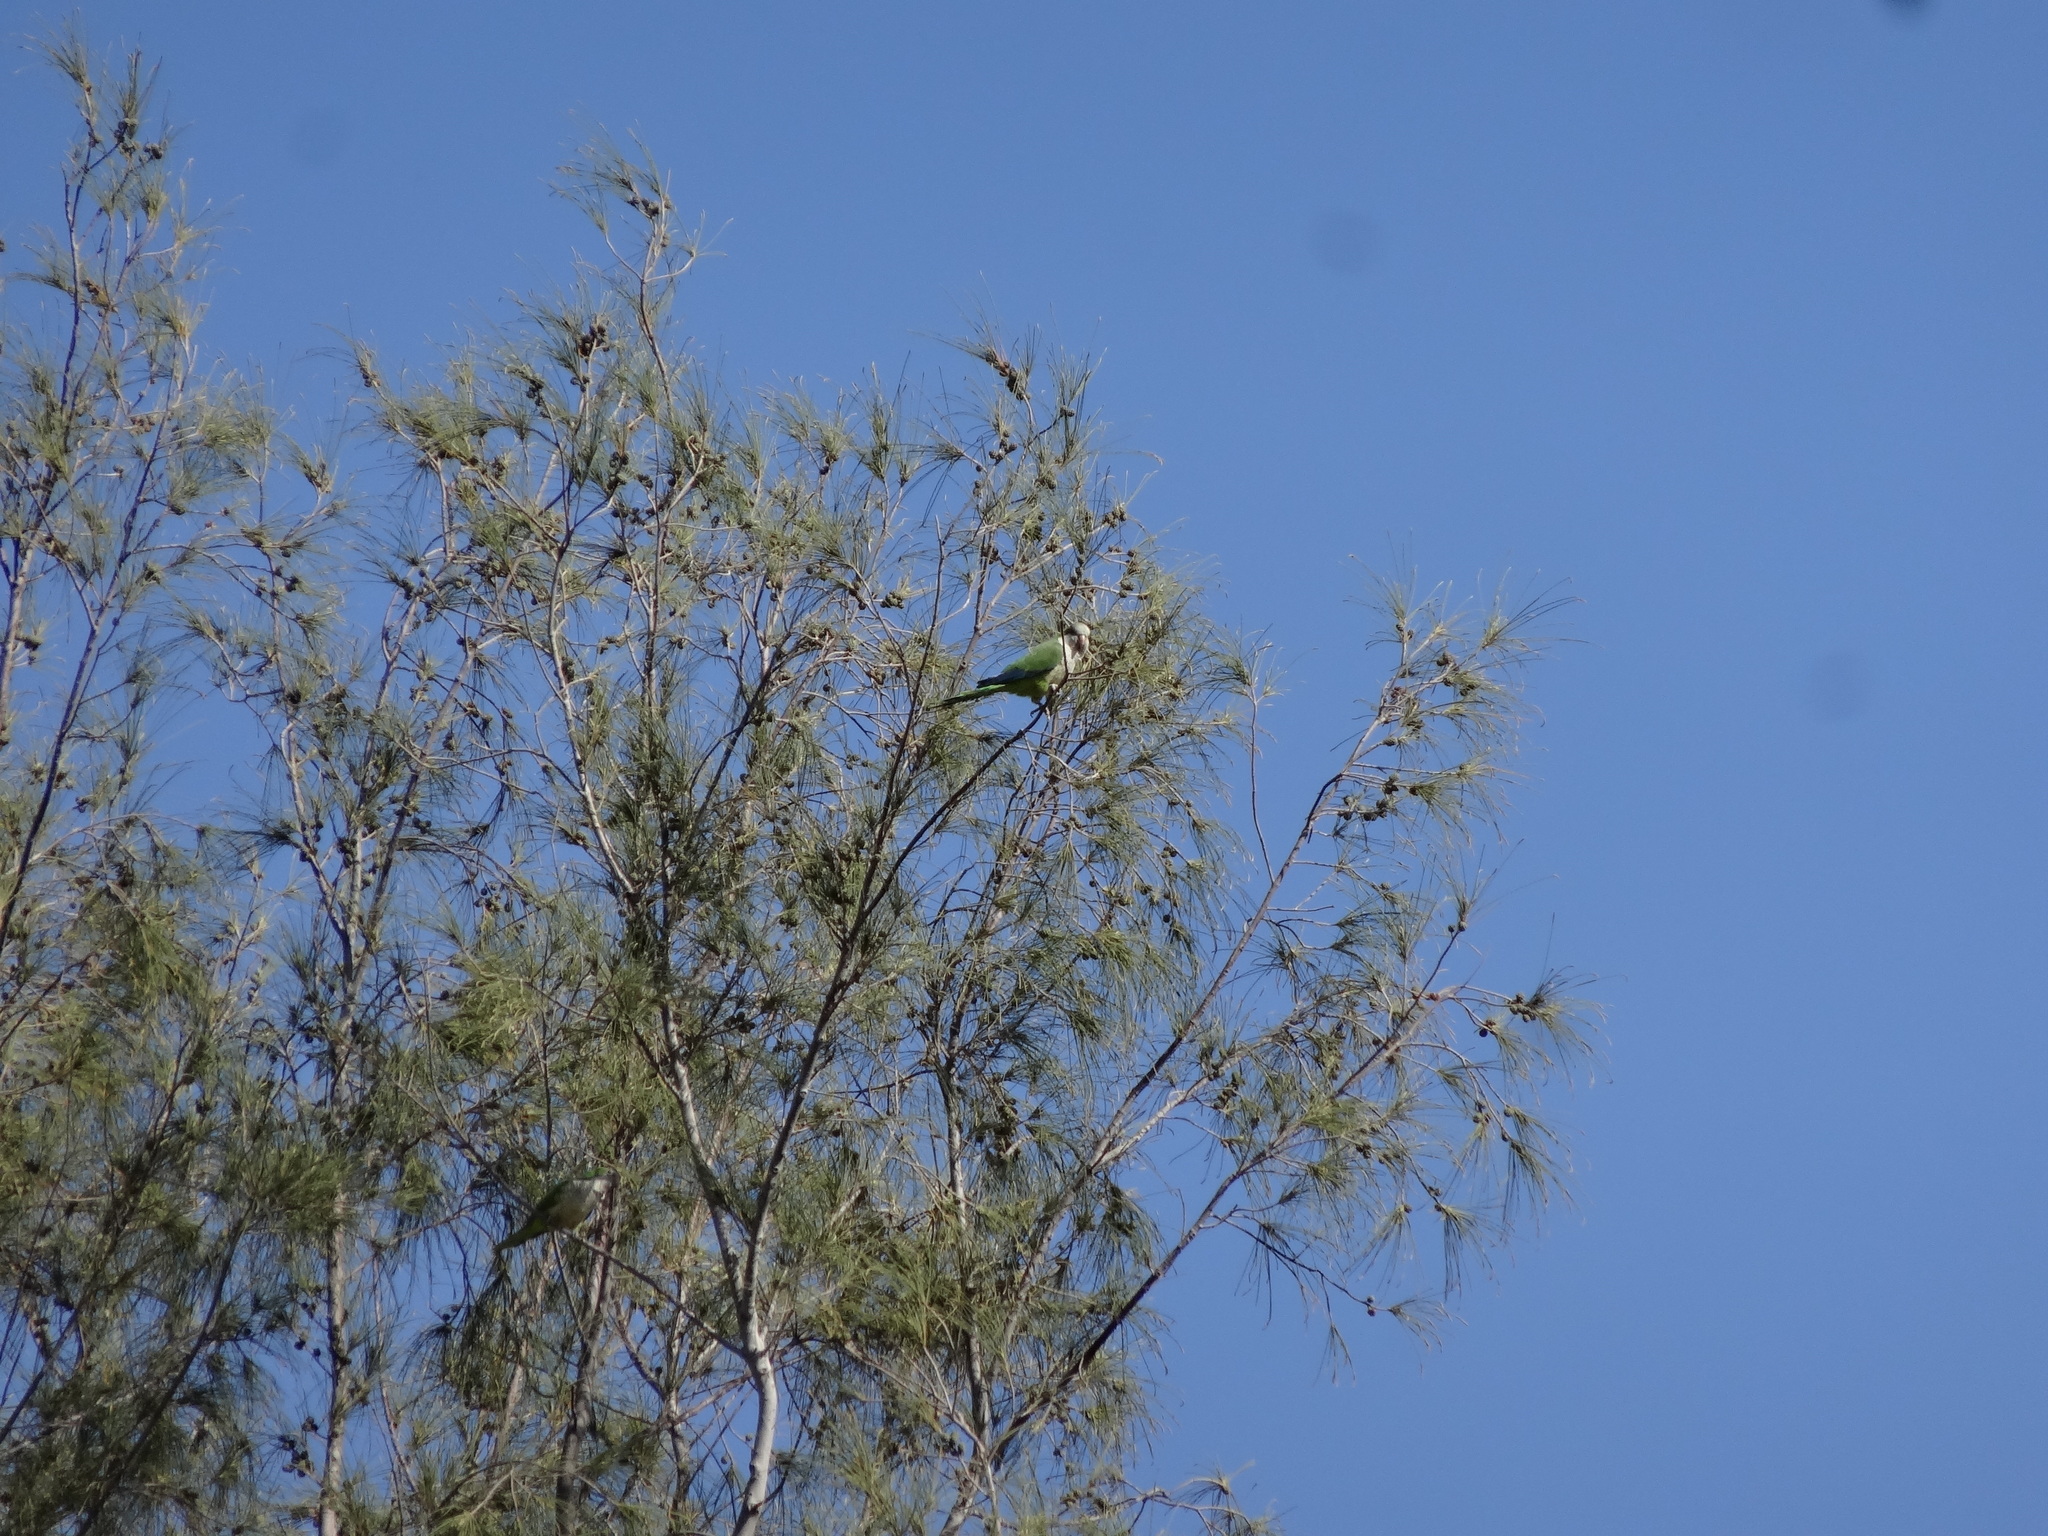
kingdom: Animalia
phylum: Chordata
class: Aves
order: Psittaciformes
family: Psittacidae
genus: Myiopsitta
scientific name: Myiopsitta monachus
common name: Monk parakeet
